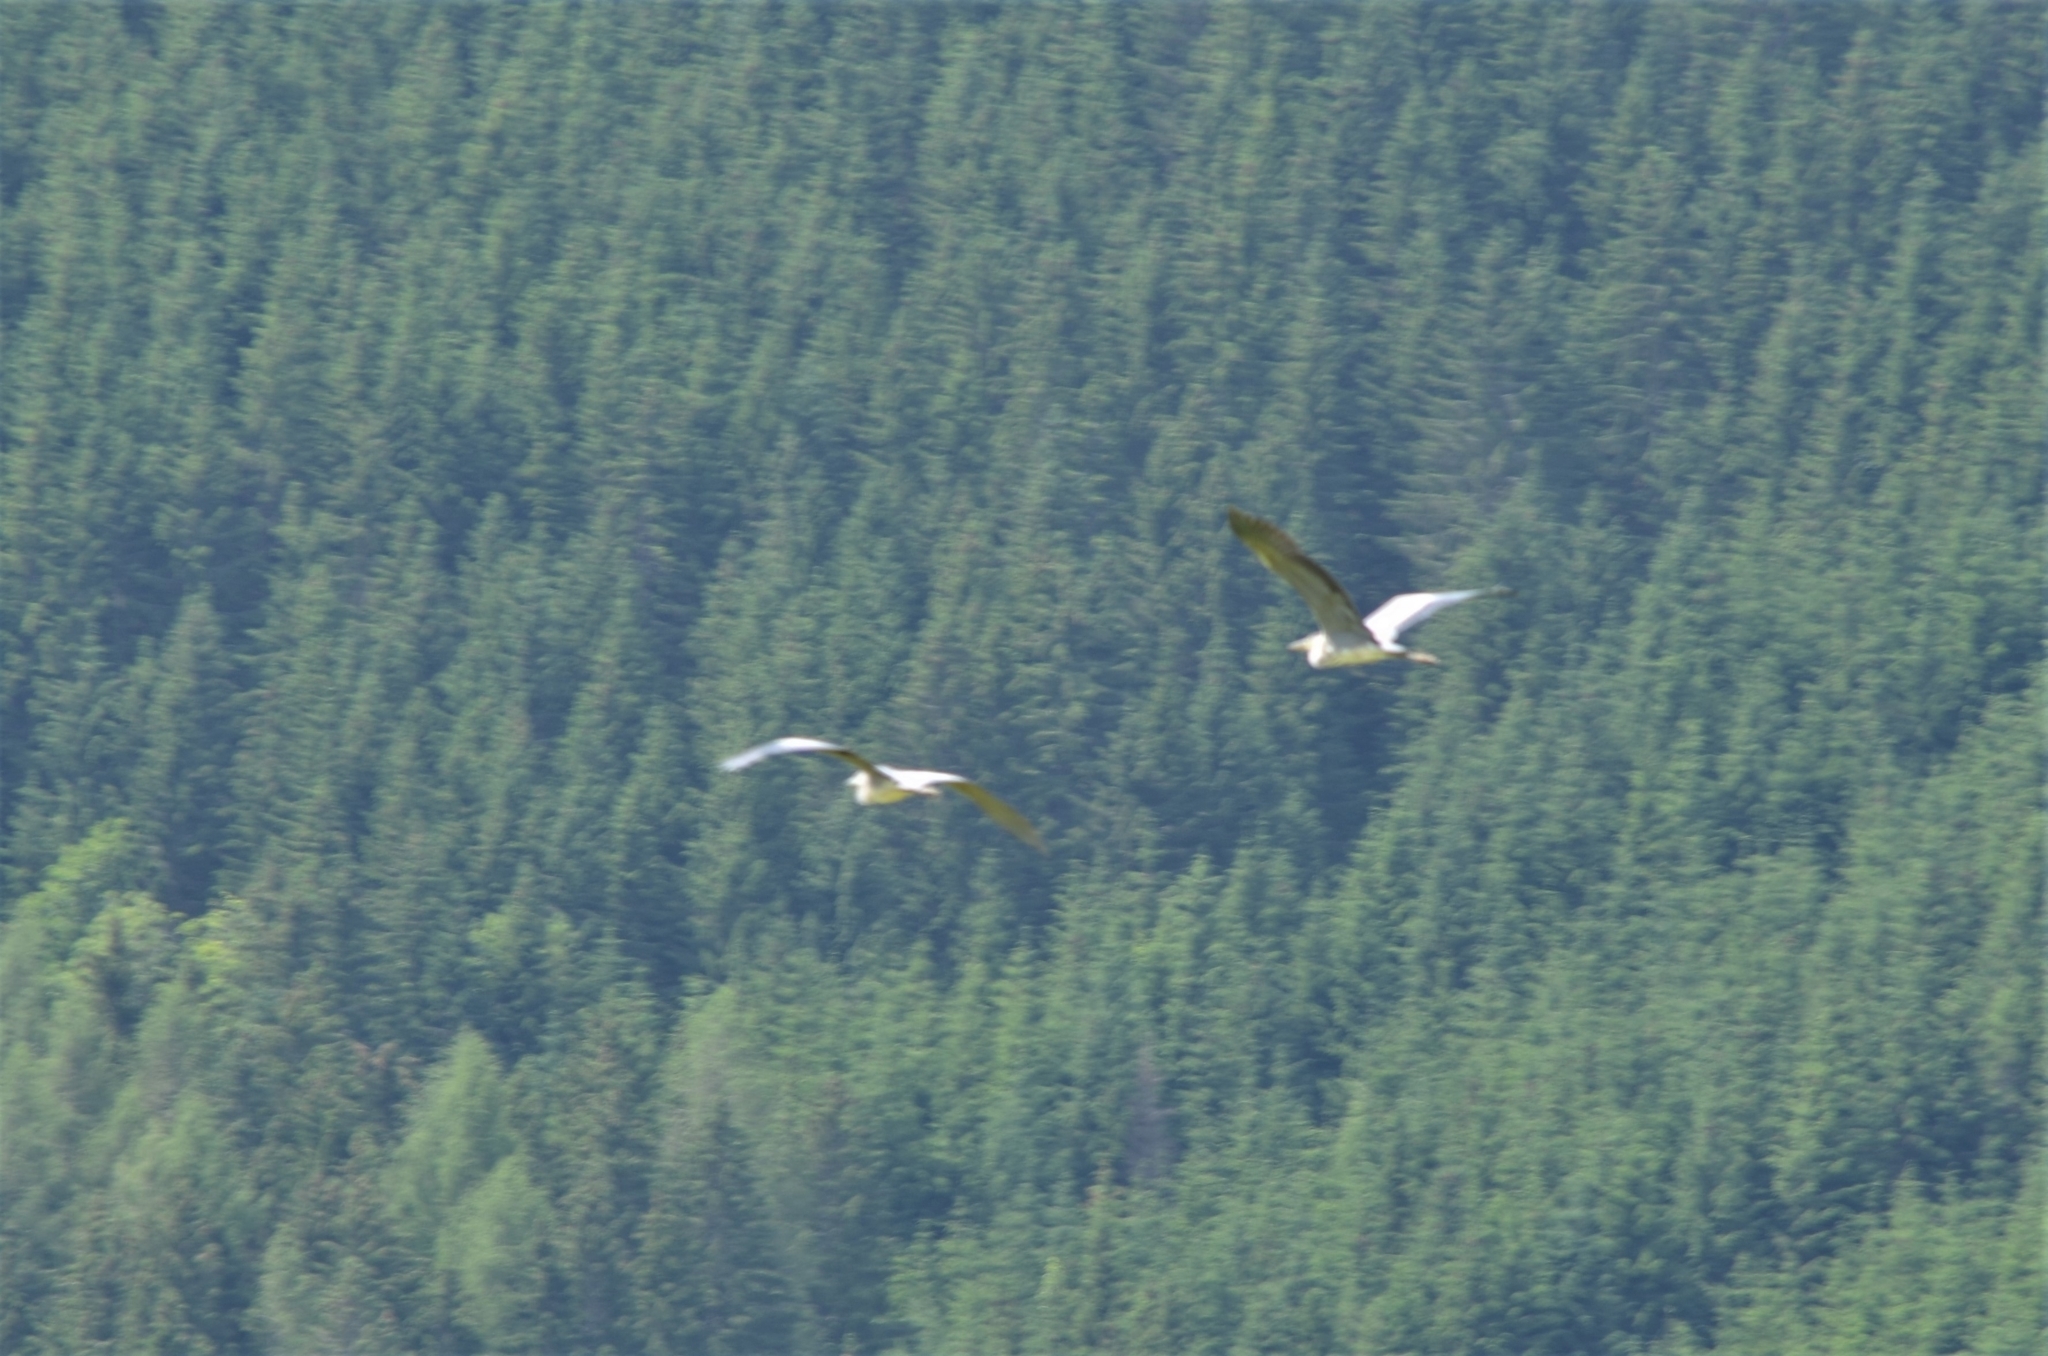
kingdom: Animalia
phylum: Chordata
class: Aves
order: Pelecaniformes
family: Ardeidae
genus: Ardea
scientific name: Ardea cinerea
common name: Grey heron
